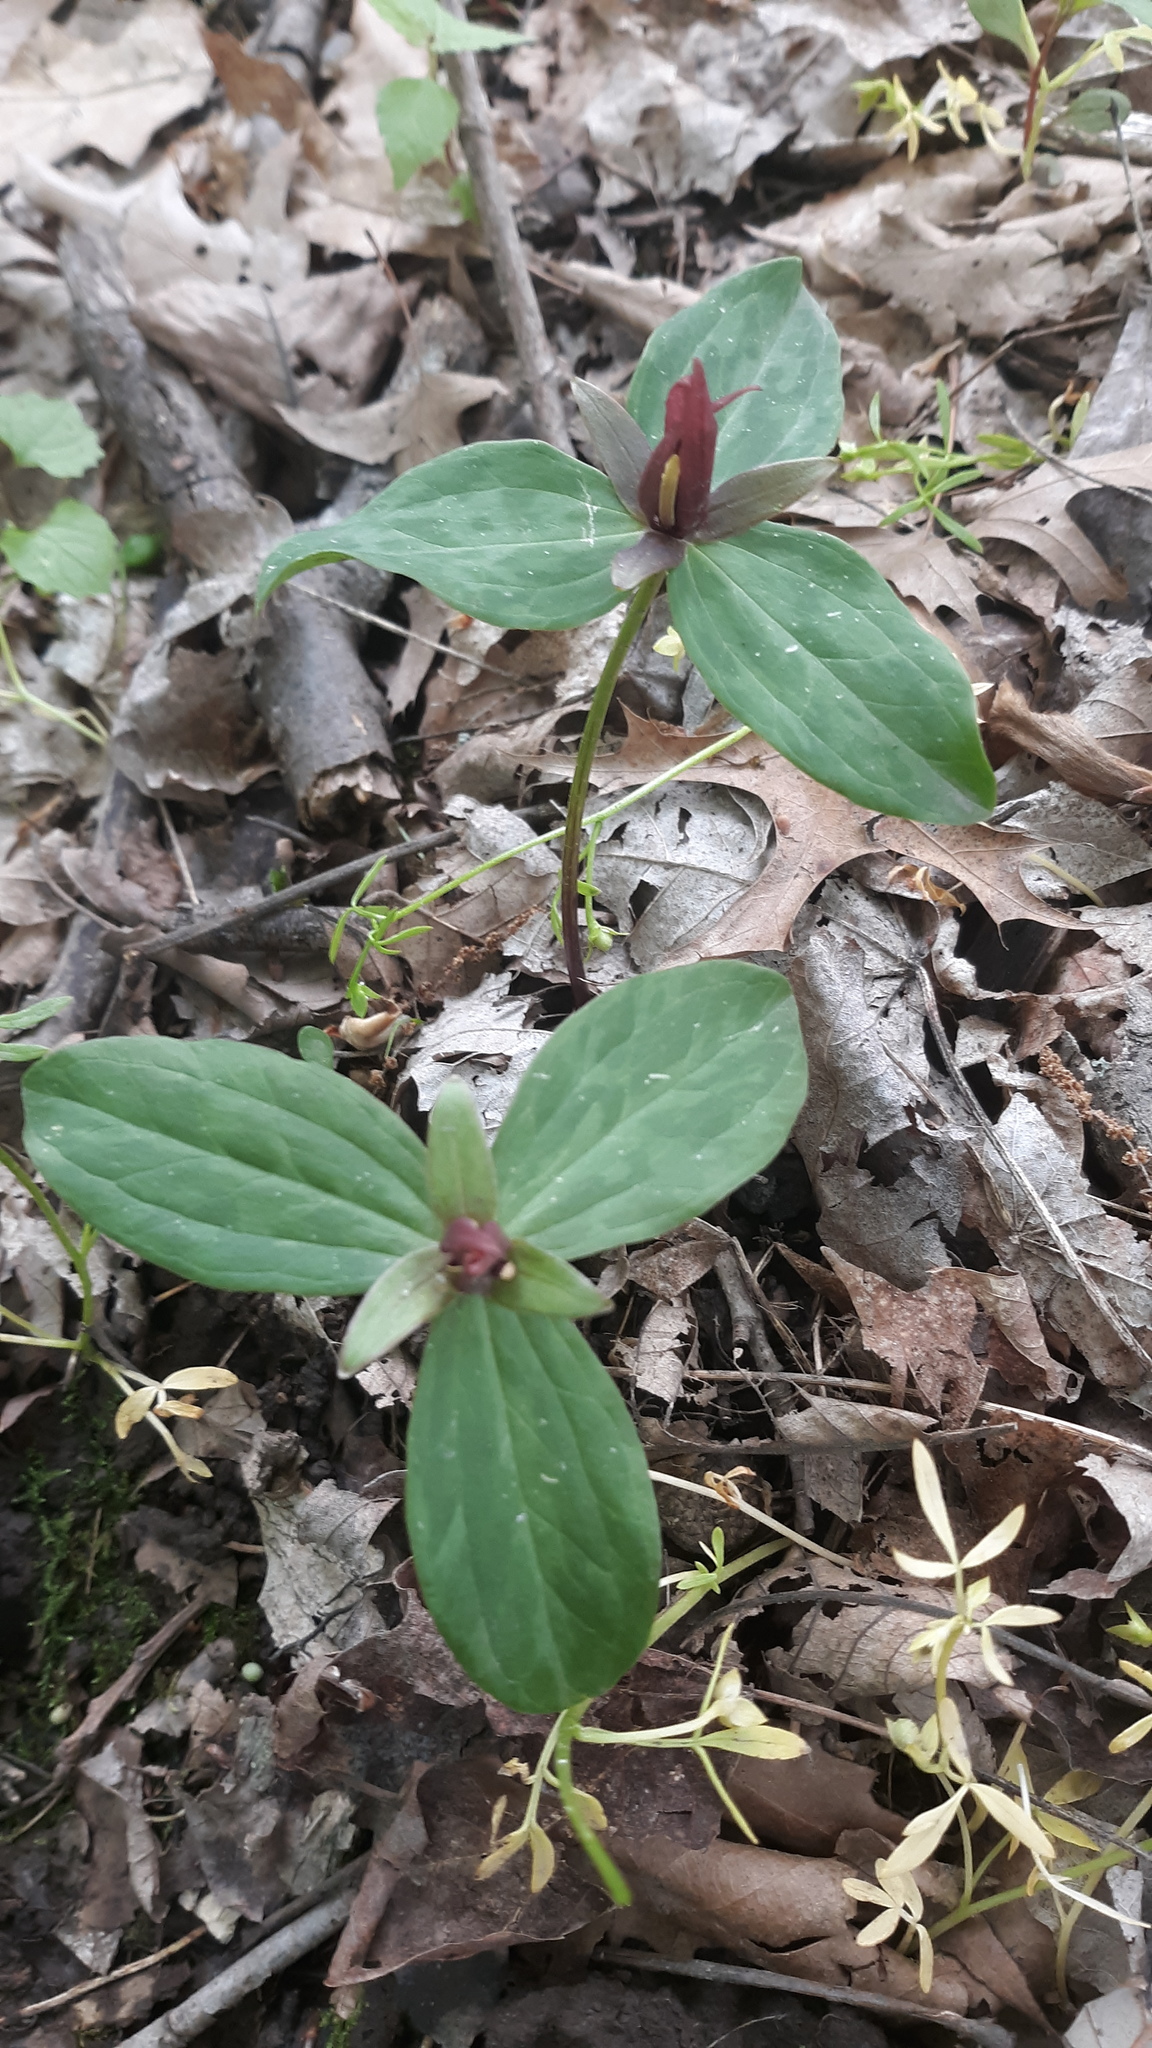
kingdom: Plantae
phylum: Tracheophyta
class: Liliopsida
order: Liliales
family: Melanthiaceae
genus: Trillium
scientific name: Trillium sessile
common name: Sessile trillium
